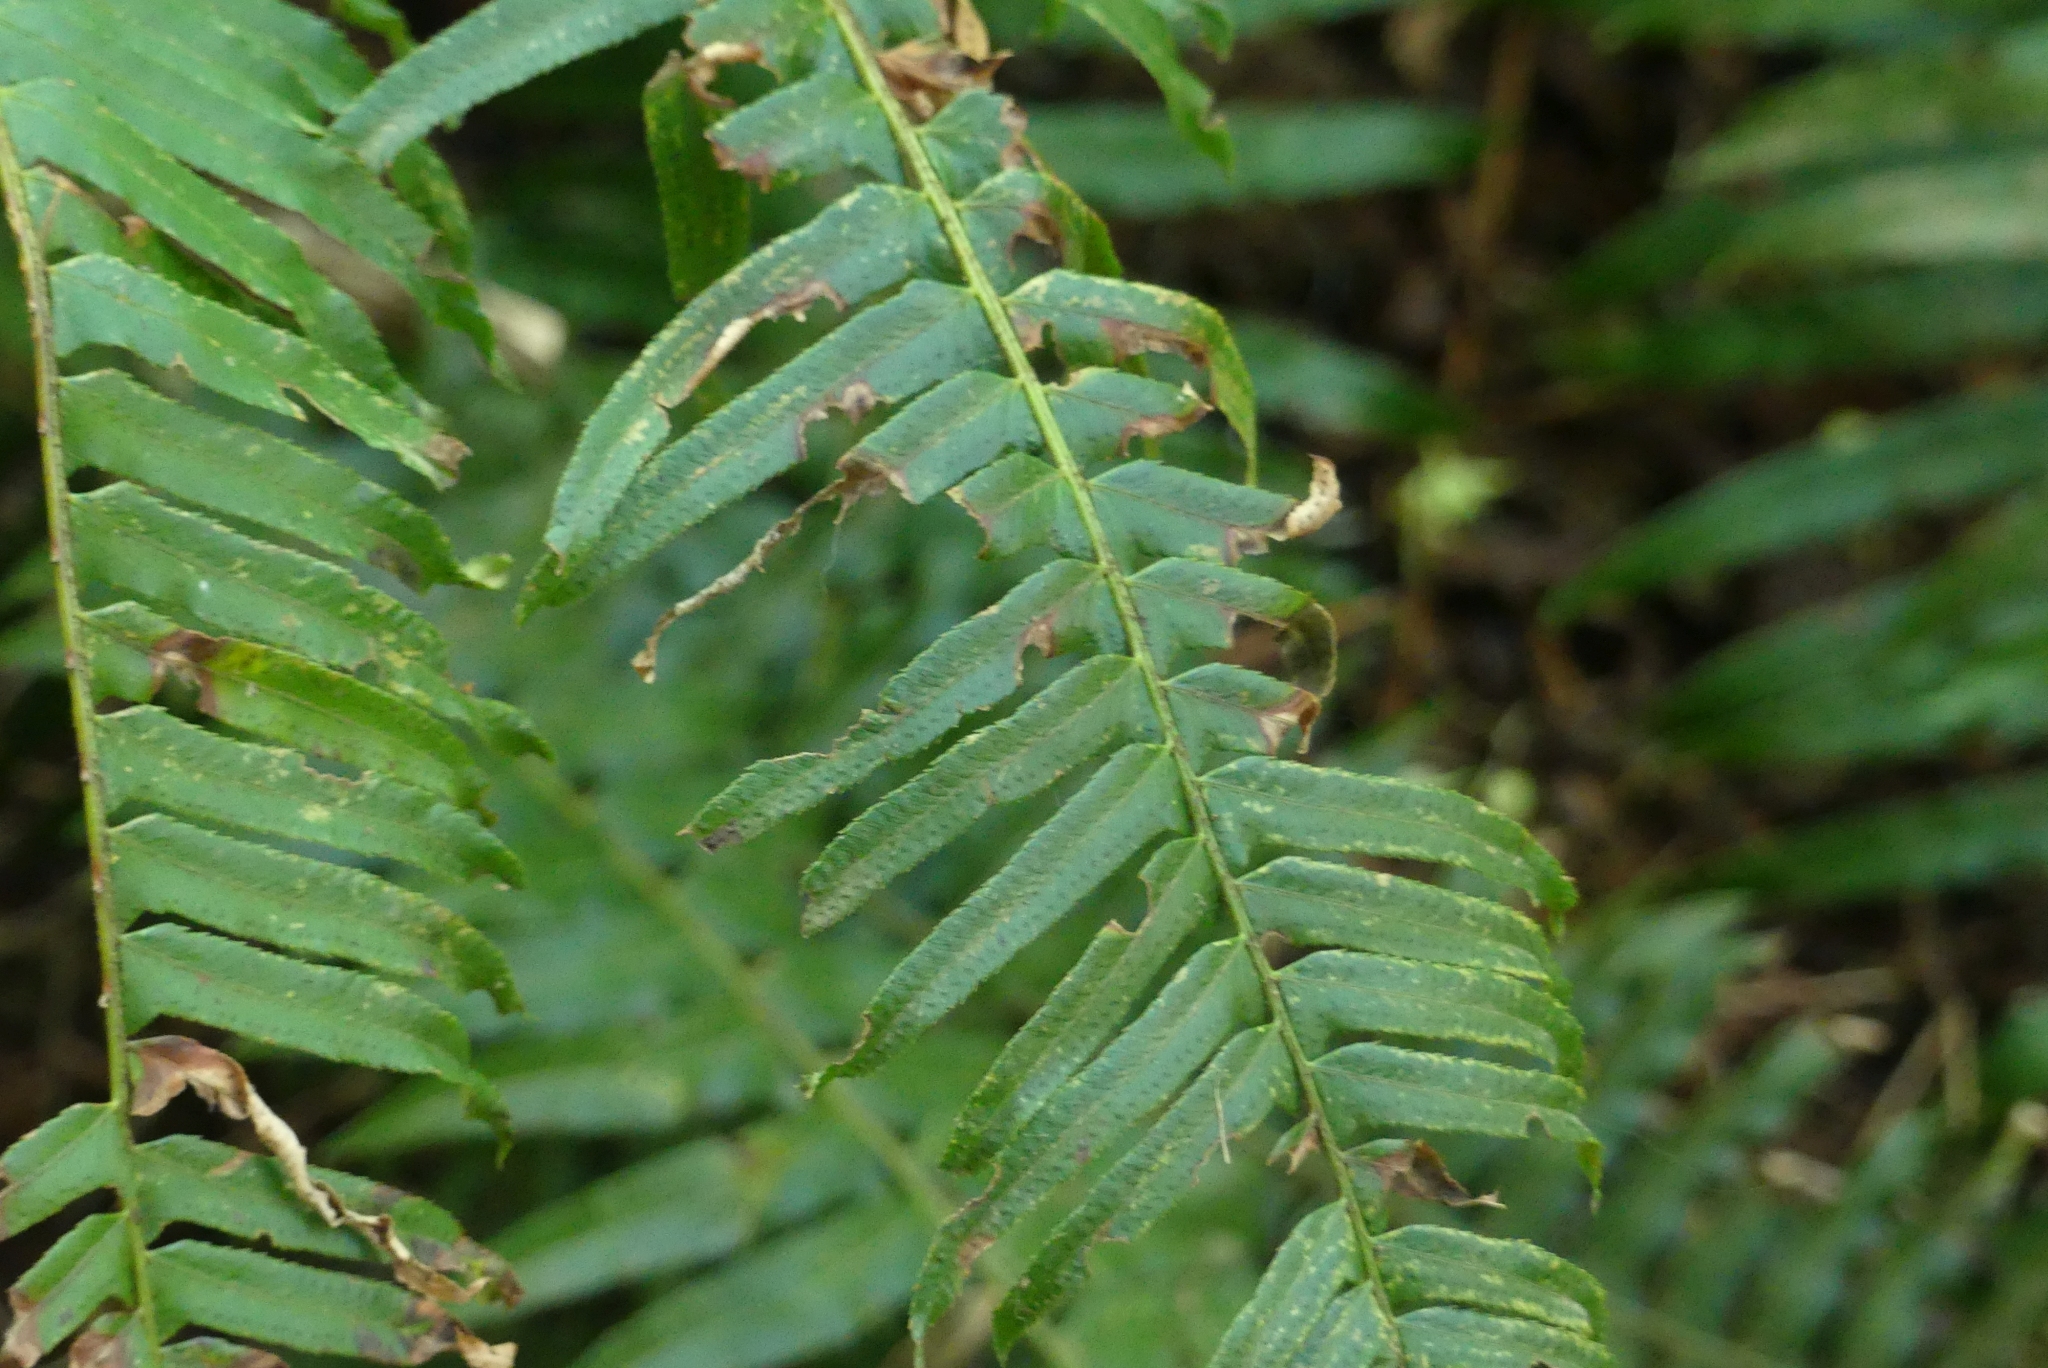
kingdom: Plantae
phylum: Tracheophyta
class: Polypodiopsida
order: Polypodiales
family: Dryopteridaceae
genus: Polystichum
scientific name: Polystichum munitum
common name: Western sword-fern
